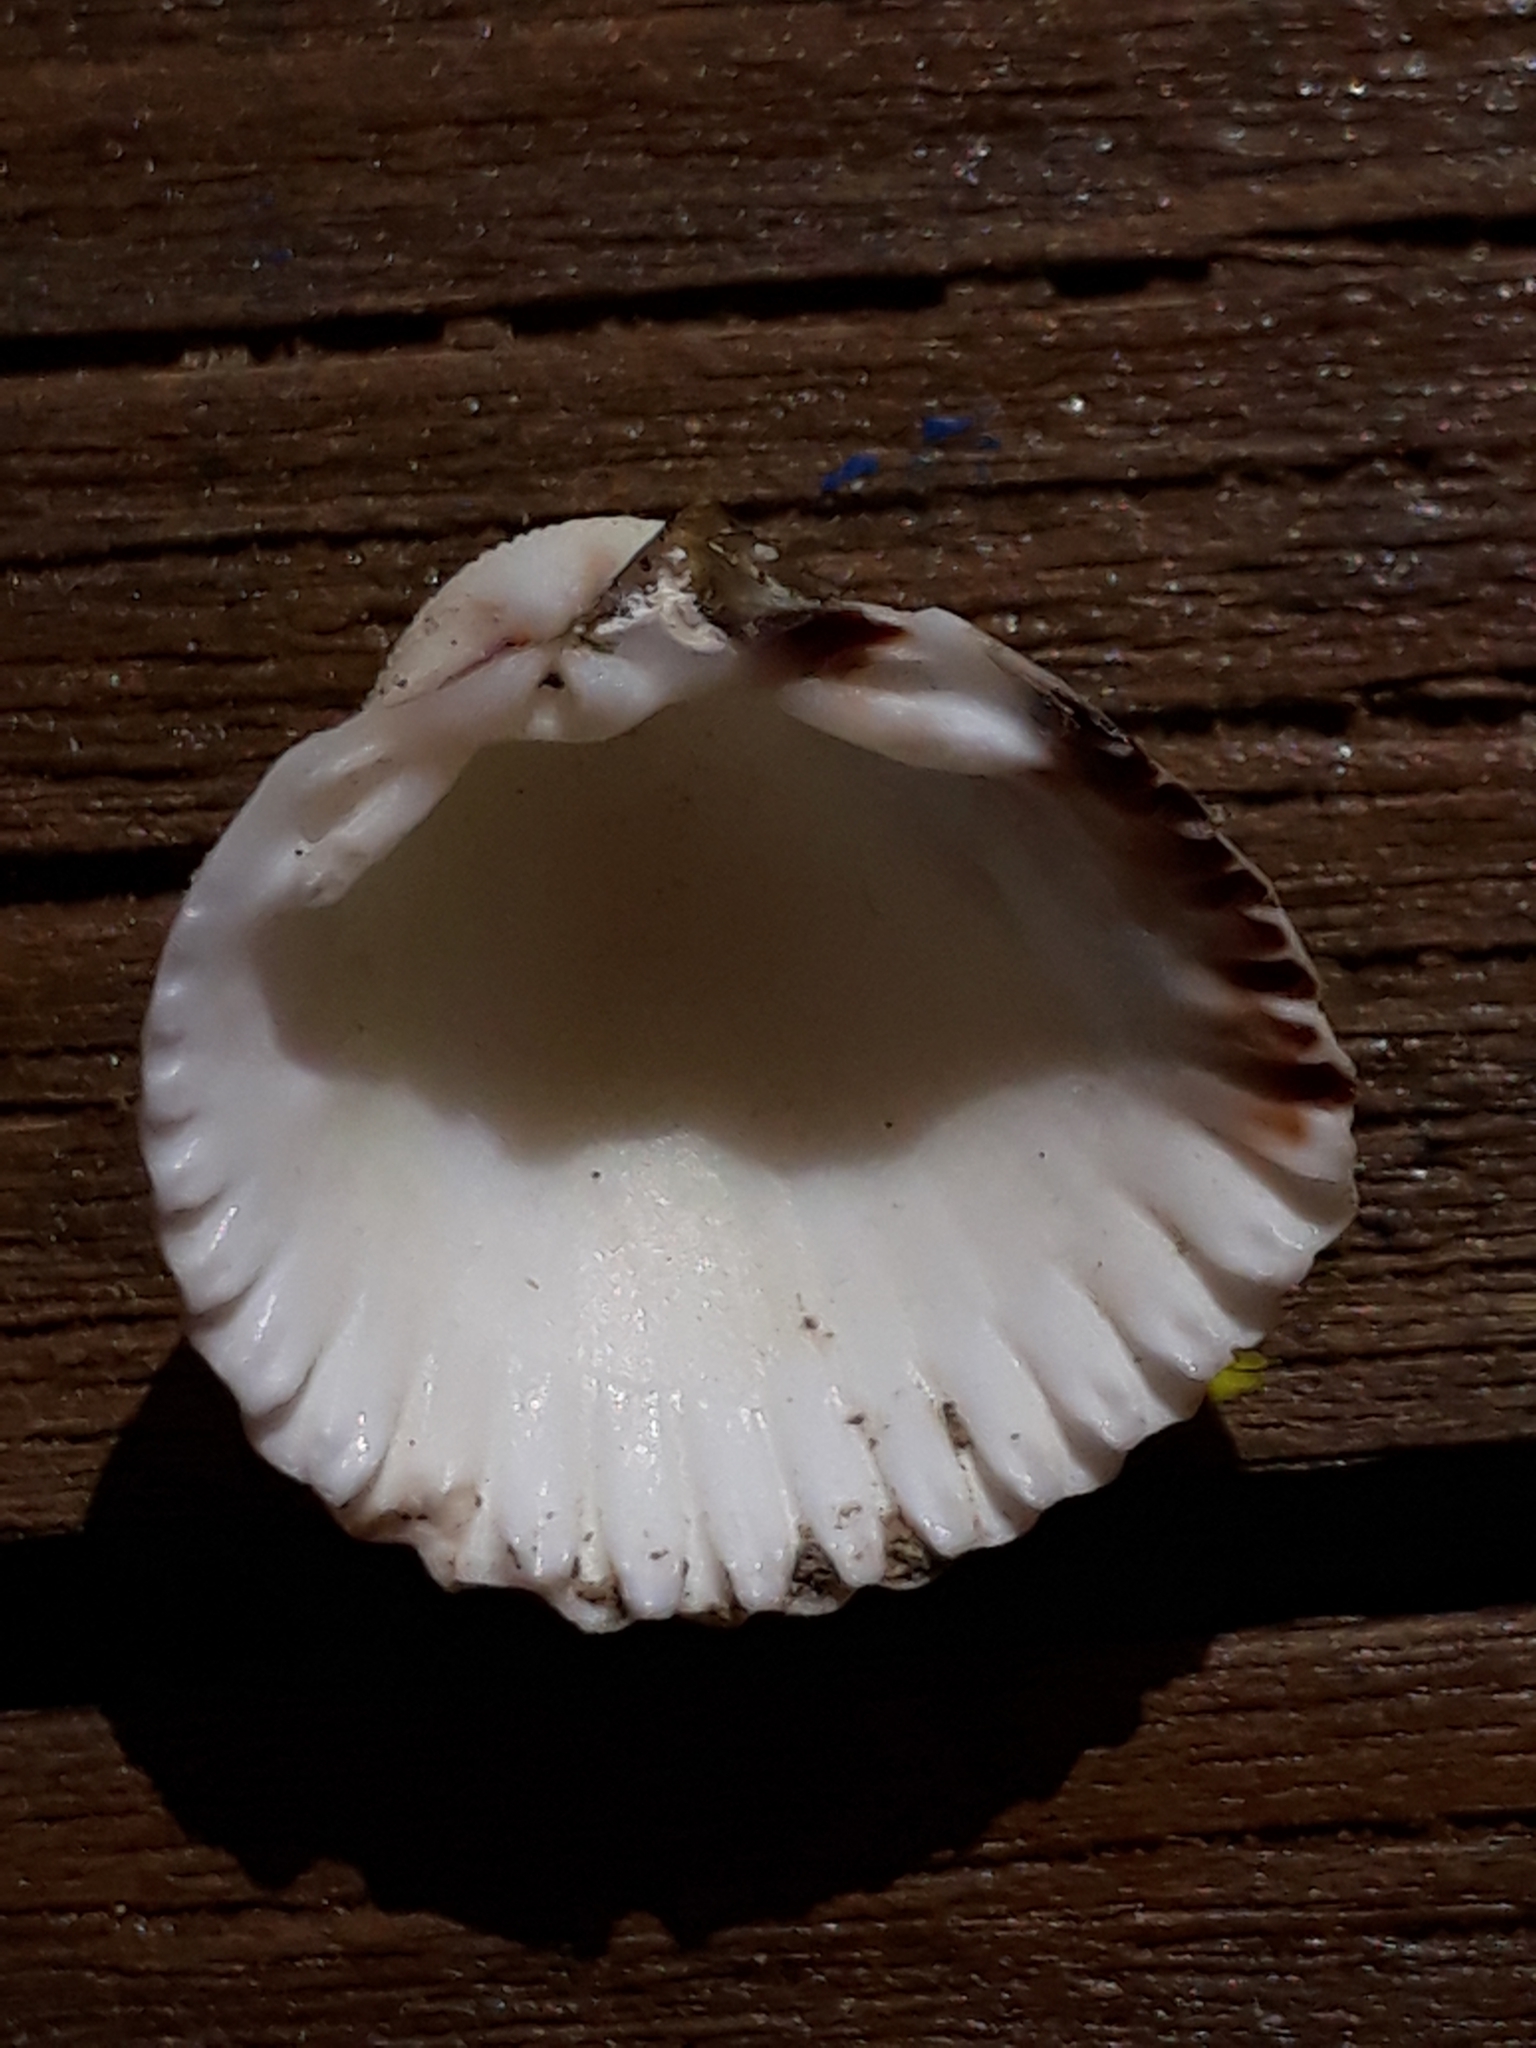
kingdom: Animalia
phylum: Mollusca
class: Bivalvia
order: Cardiida
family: Cardiidae
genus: Cerastoderma
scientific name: Cerastoderma edule
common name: Common cockle
